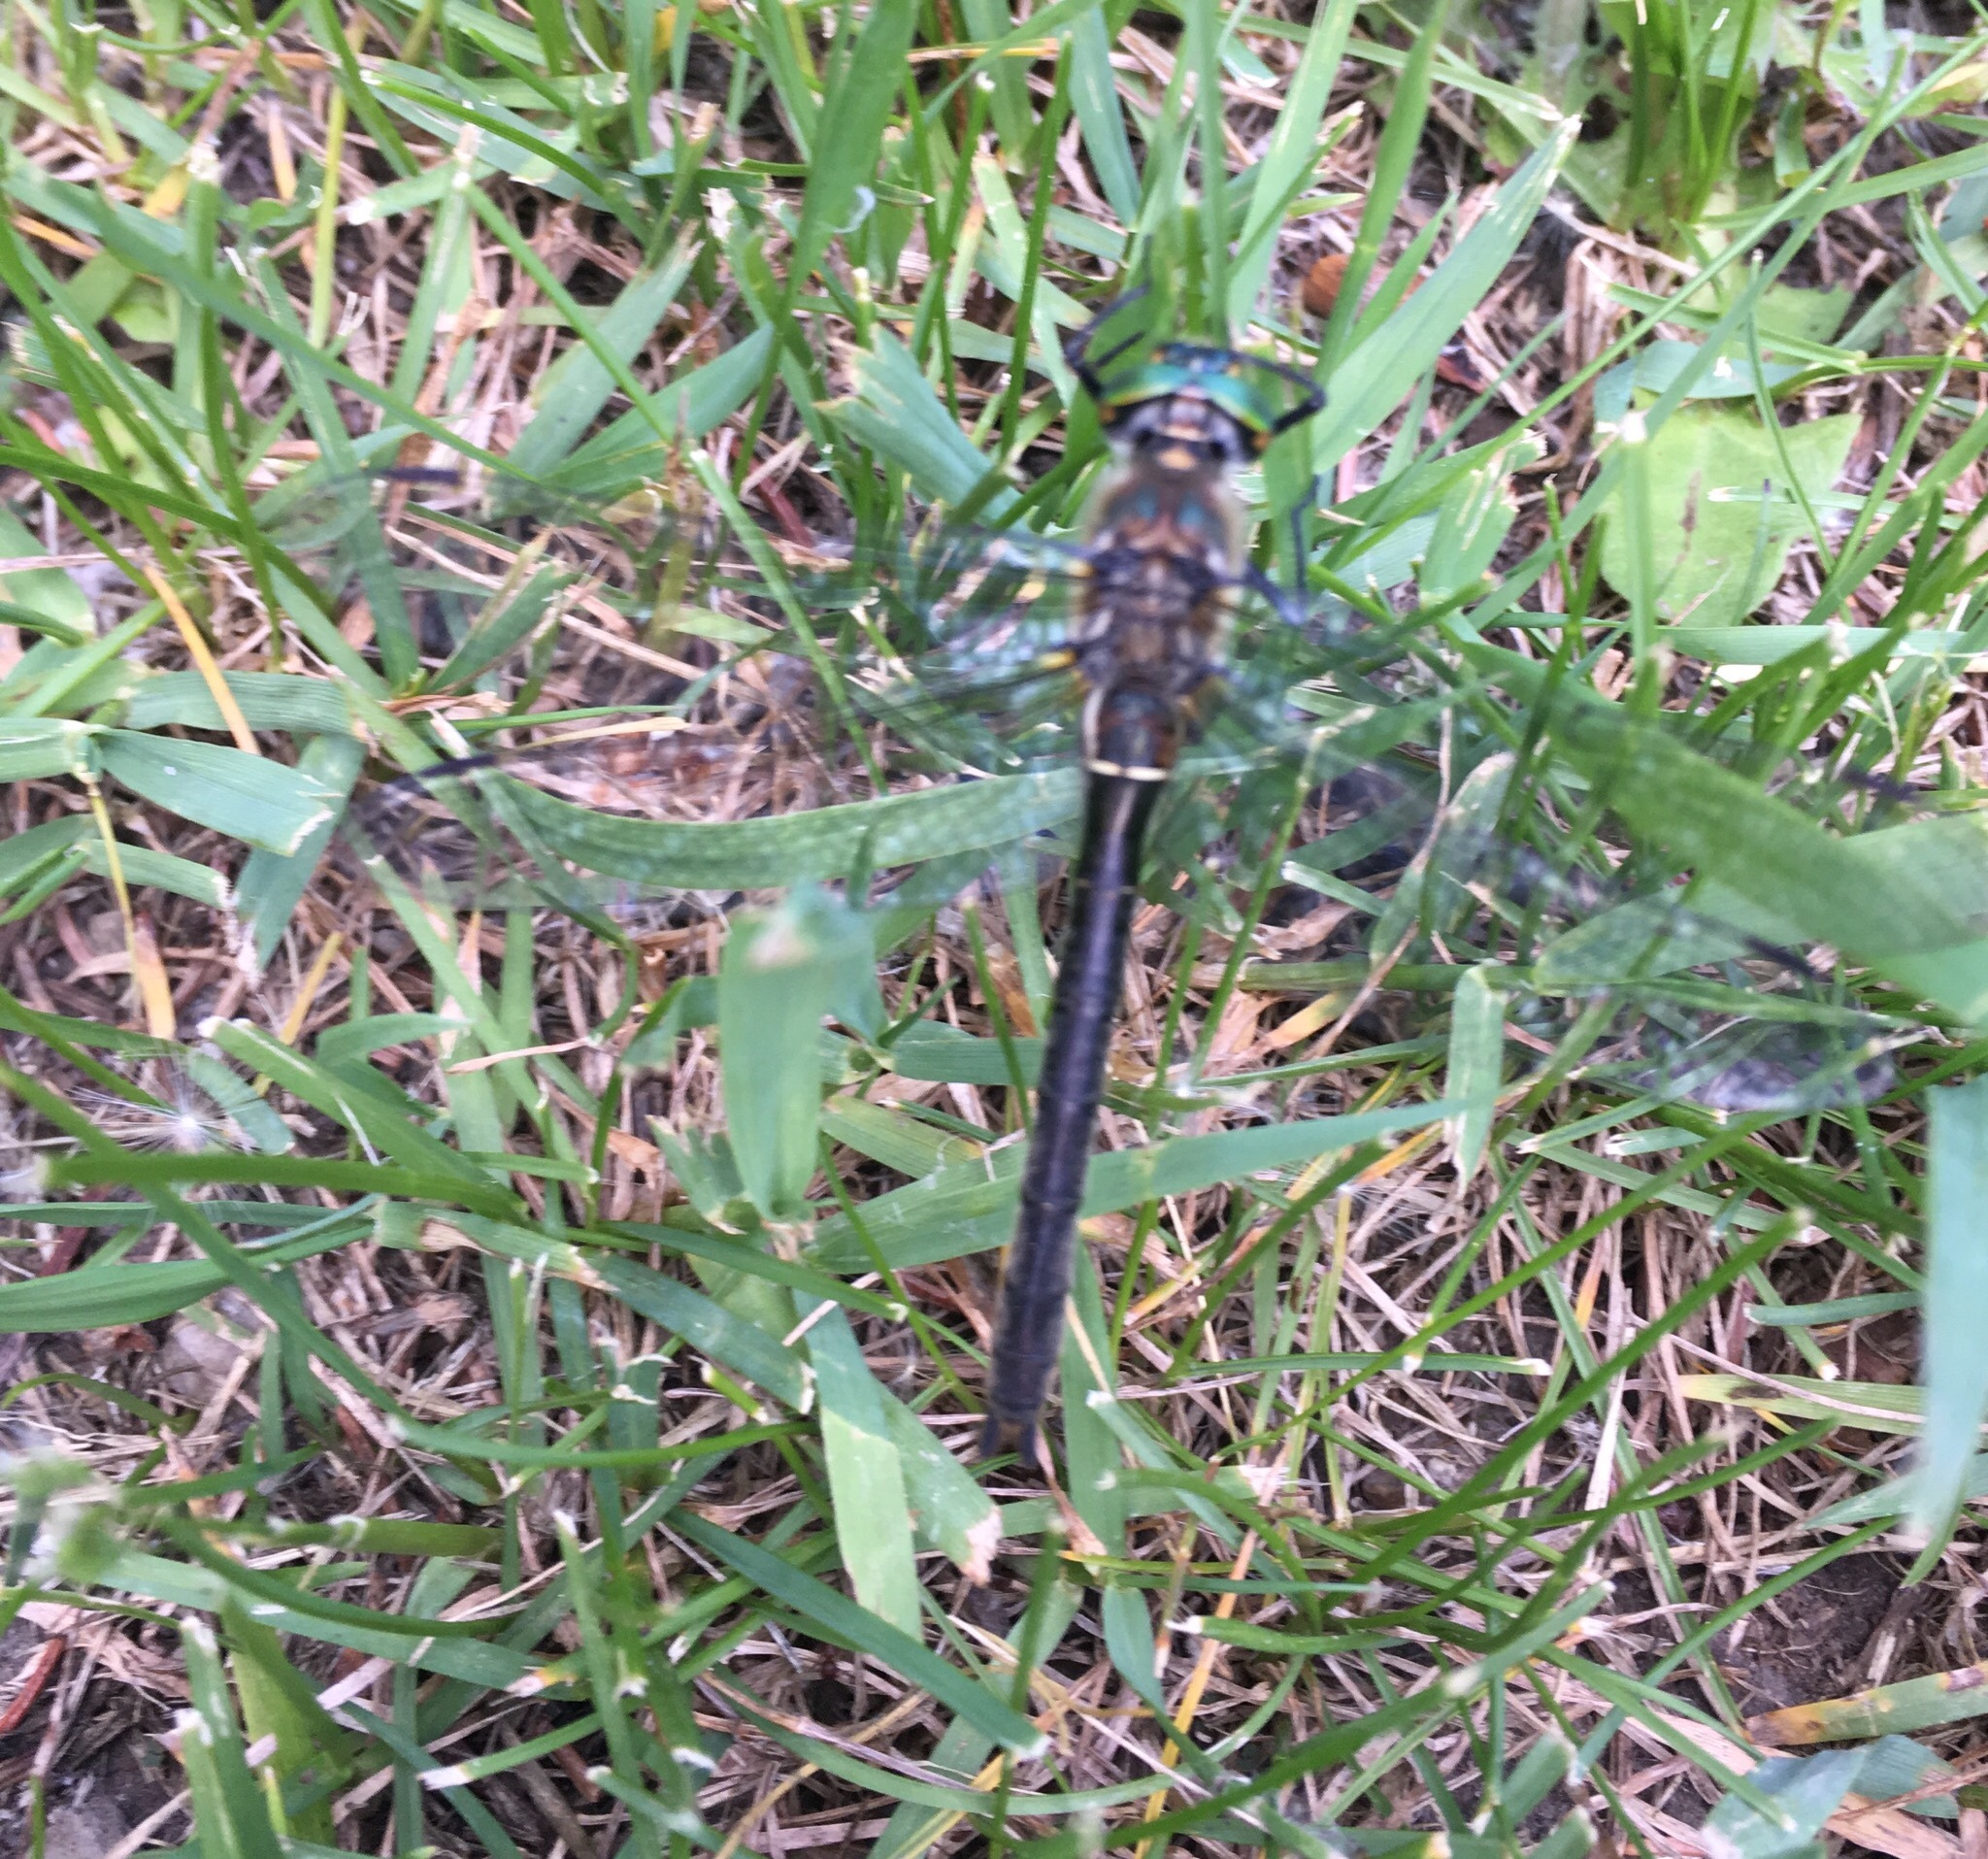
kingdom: Animalia
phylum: Arthropoda
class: Insecta
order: Odonata
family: Corduliidae
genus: Cordulia
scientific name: Cordulia shurtleffii
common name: American emerald
